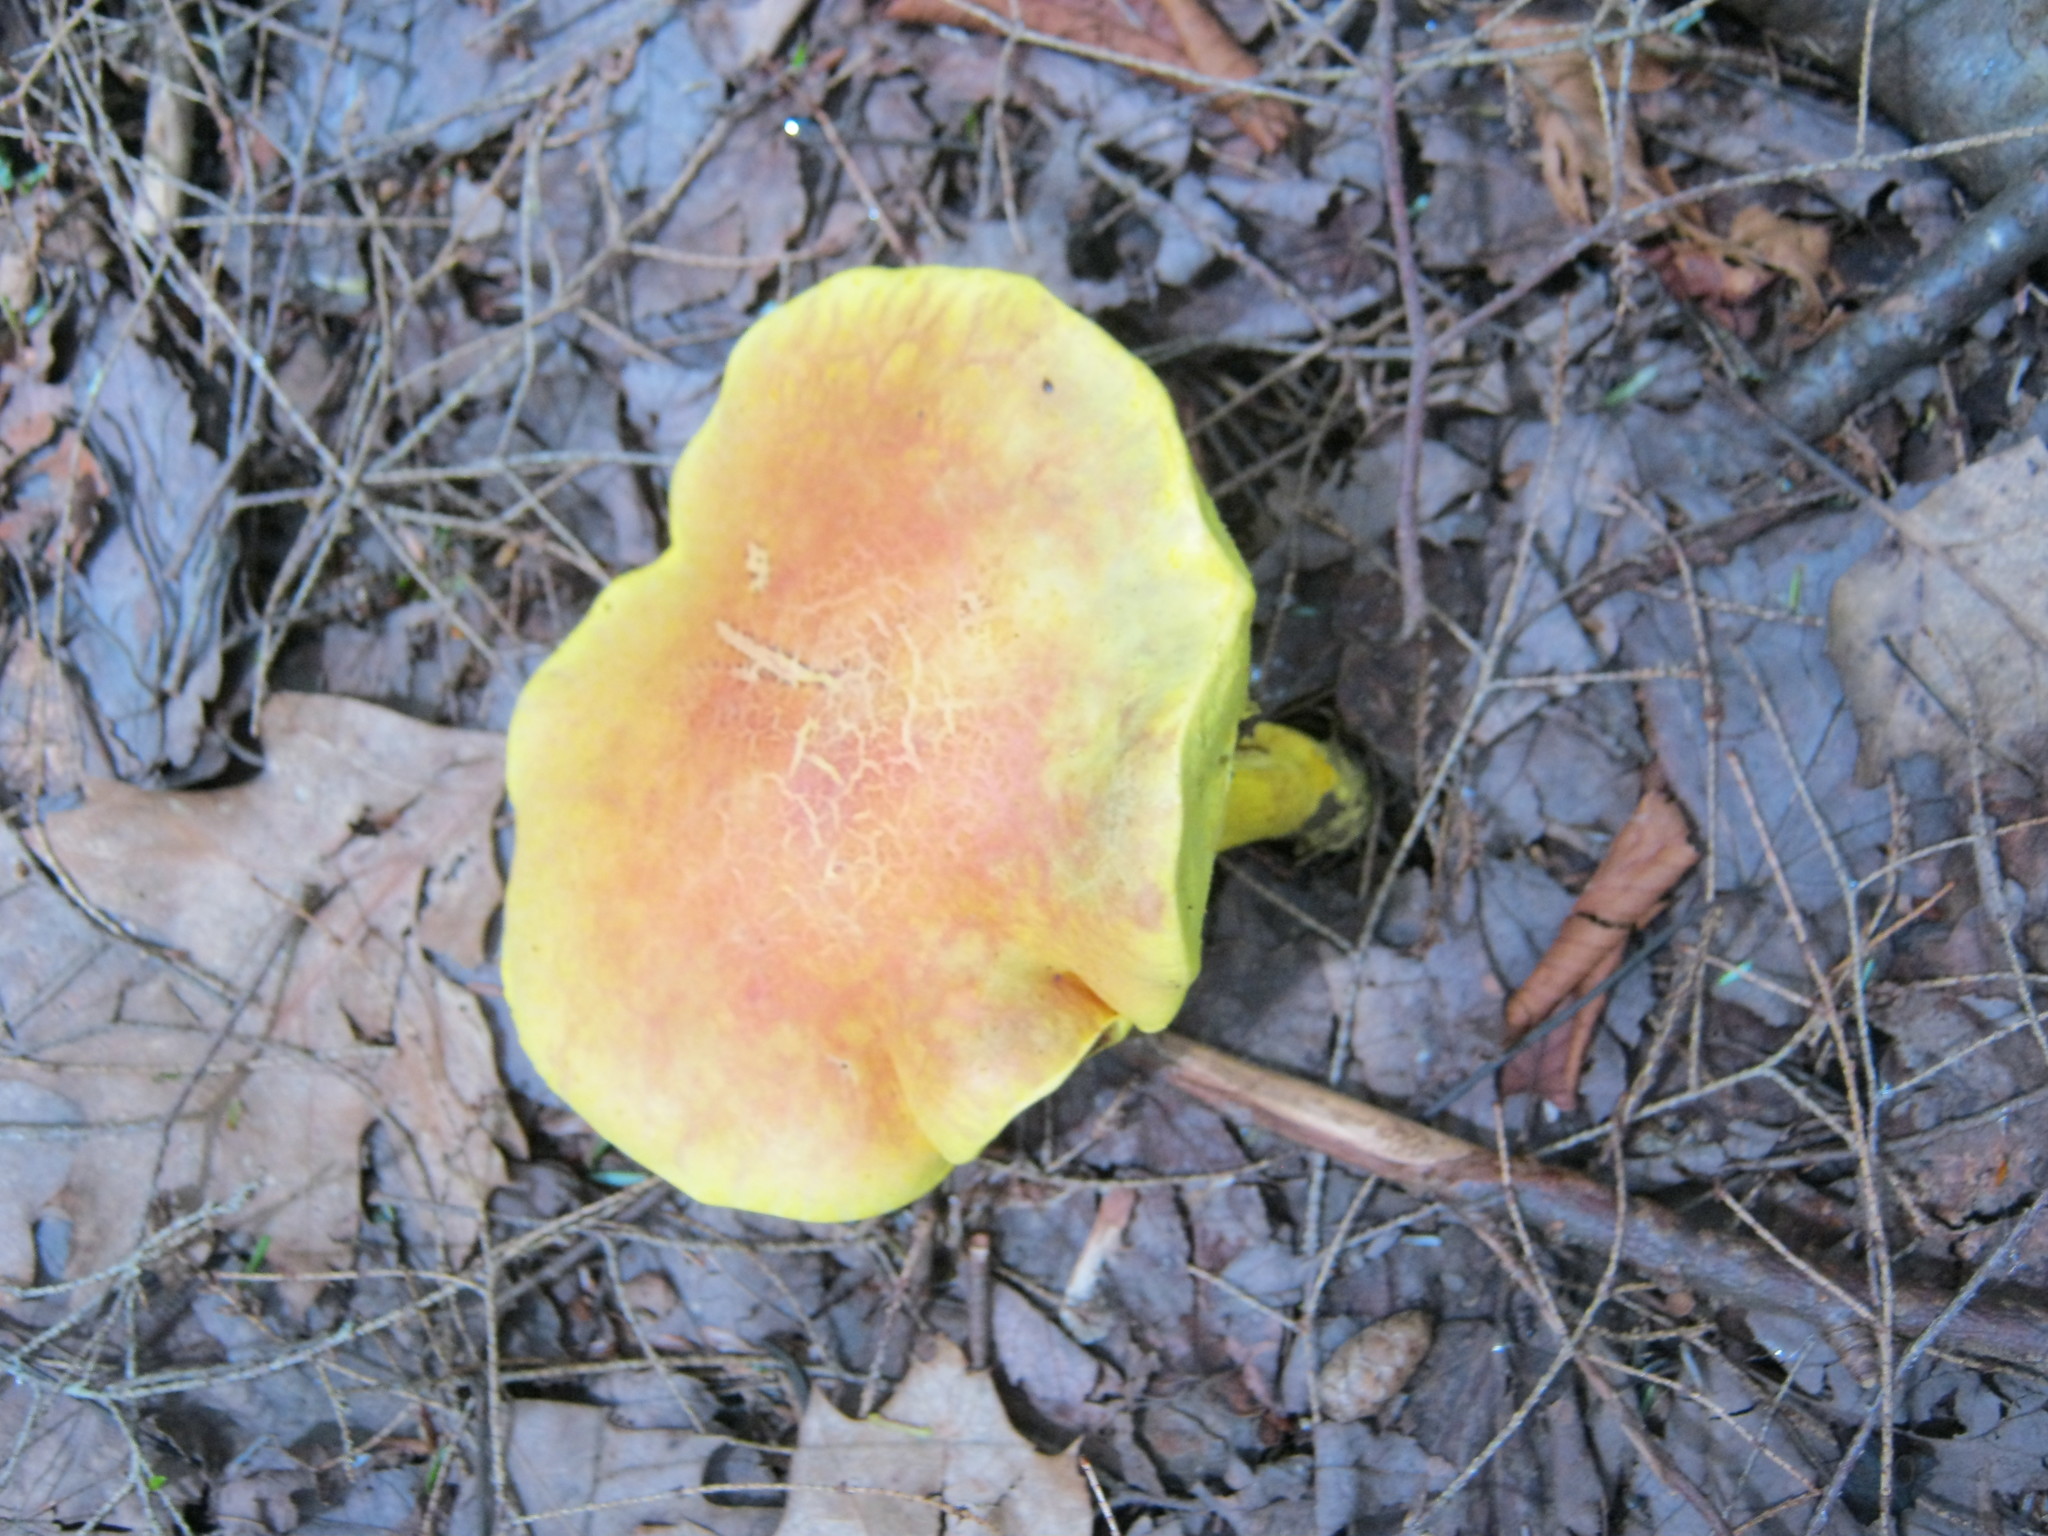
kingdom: Fungi
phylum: Basidiomycota
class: Agaricomycetes
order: Boletales
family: Boletaceae
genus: Pulveroboletus
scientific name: Pulveroboletus ravenelii
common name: Powdery sulfur bolete
